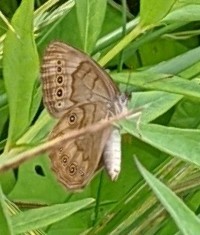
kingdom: Animalia
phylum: Arthropoda
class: Insecta
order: Lepidoptera
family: Nymphalidae
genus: Lethe
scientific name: Lethe eurydice
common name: Eyed brown
